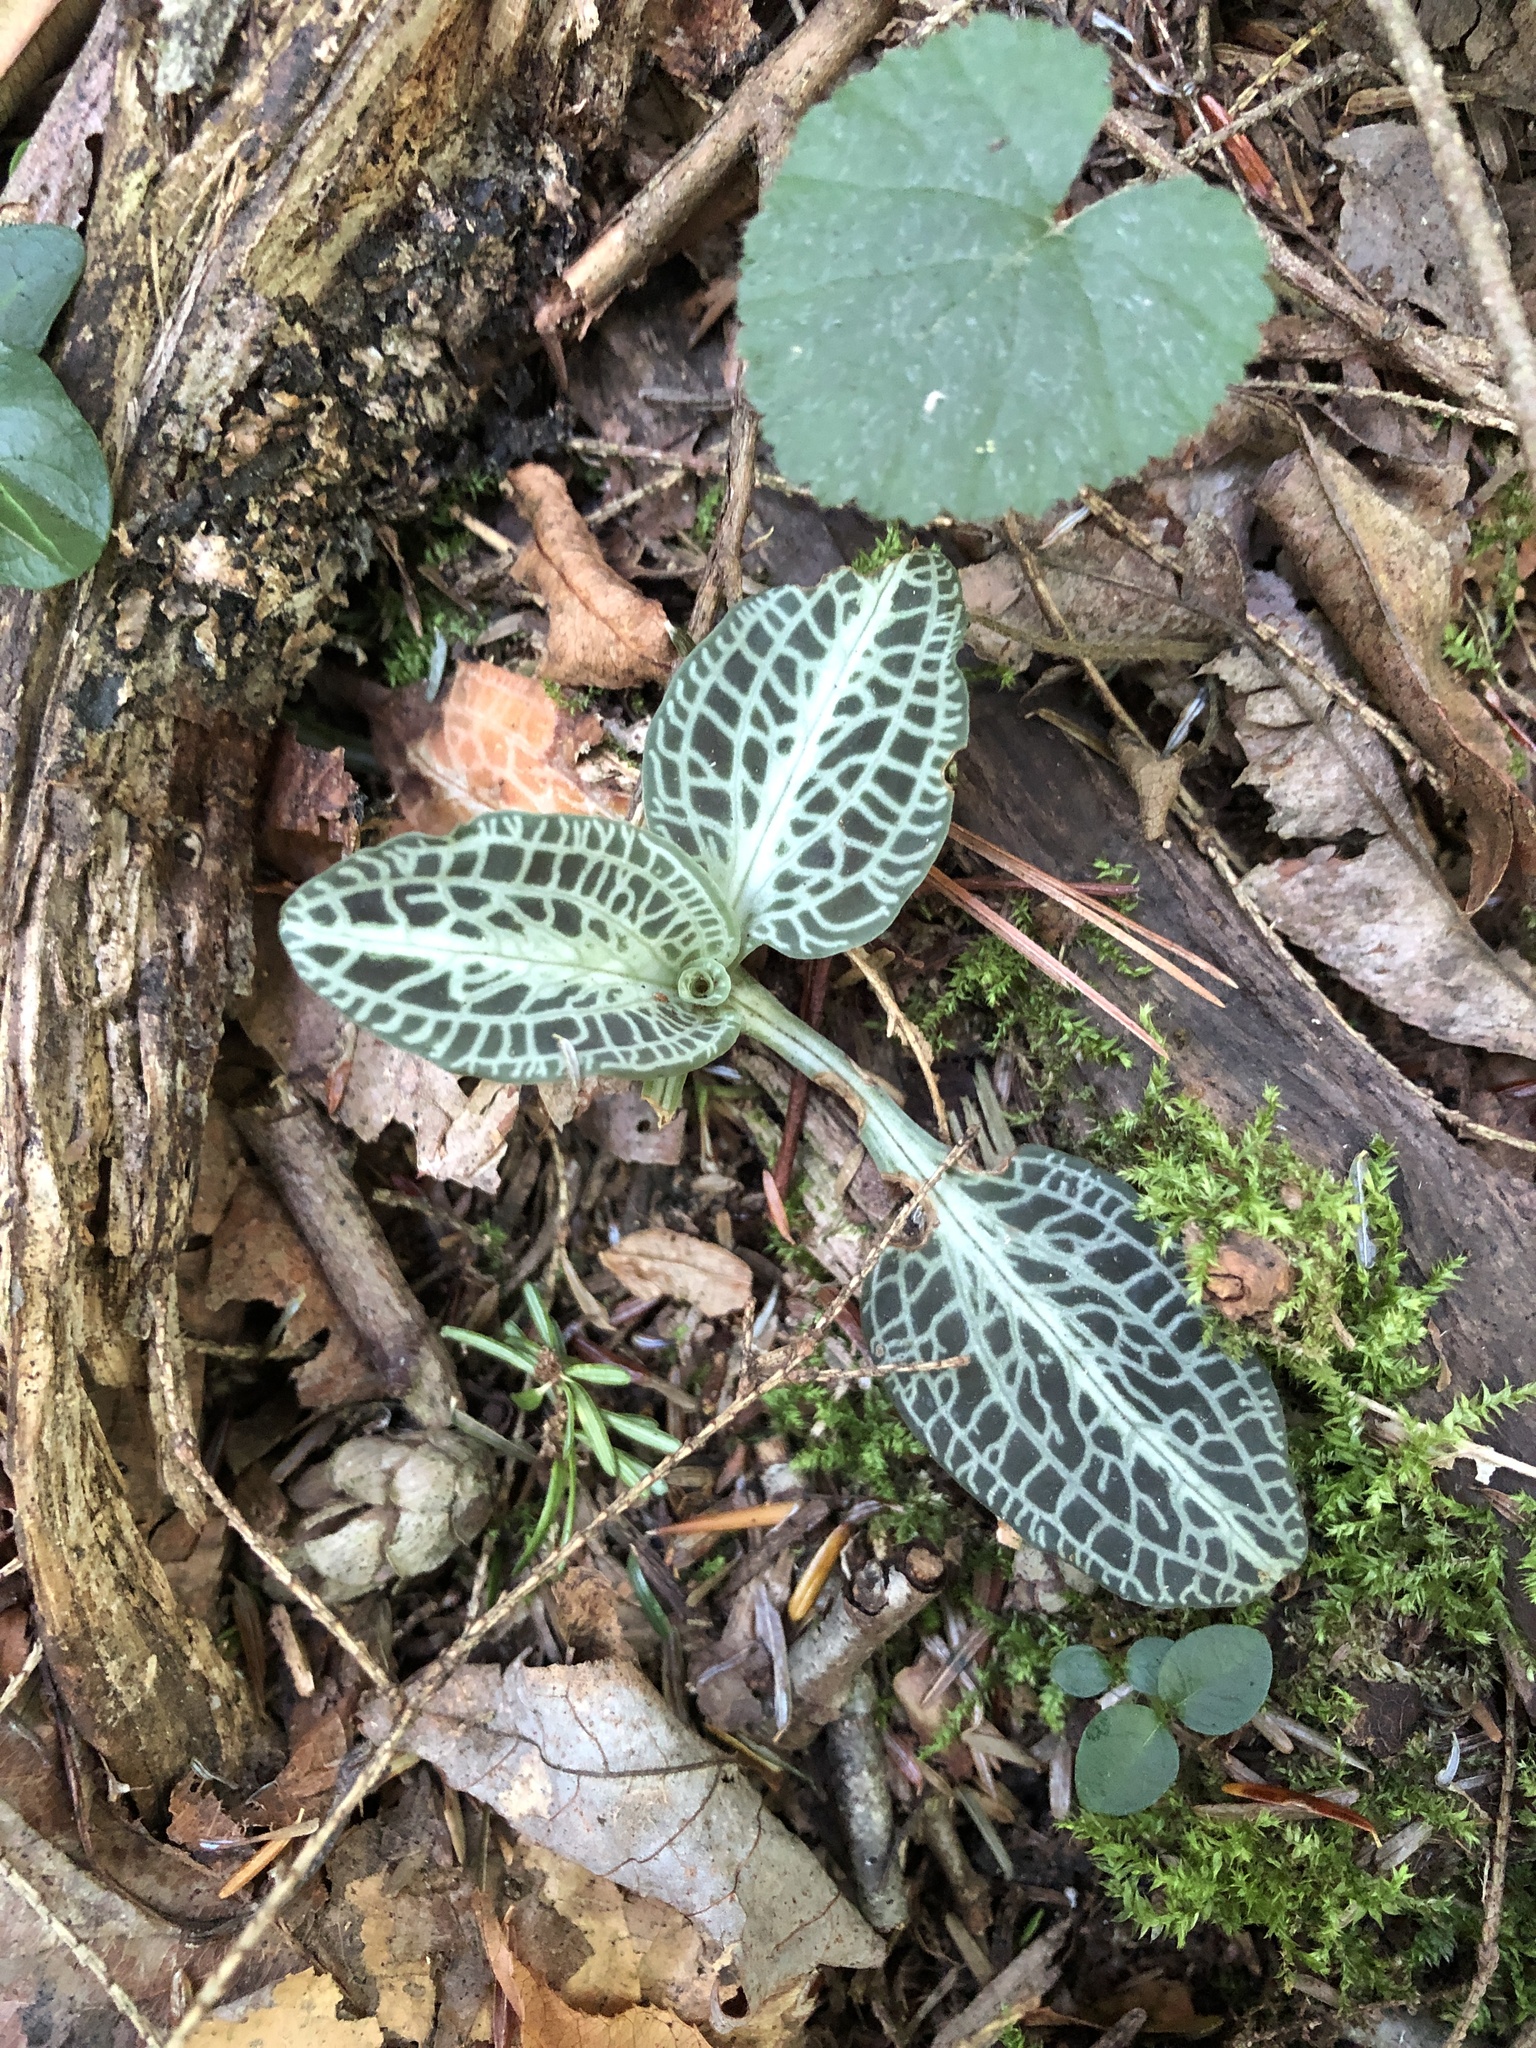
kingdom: Plantae
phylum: Tracheophyta
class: Liliopsida
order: Asparagales
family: Orchidaceae
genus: Goodyera
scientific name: Goodyera pubescens
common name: Downy rattlesnake-plantain
